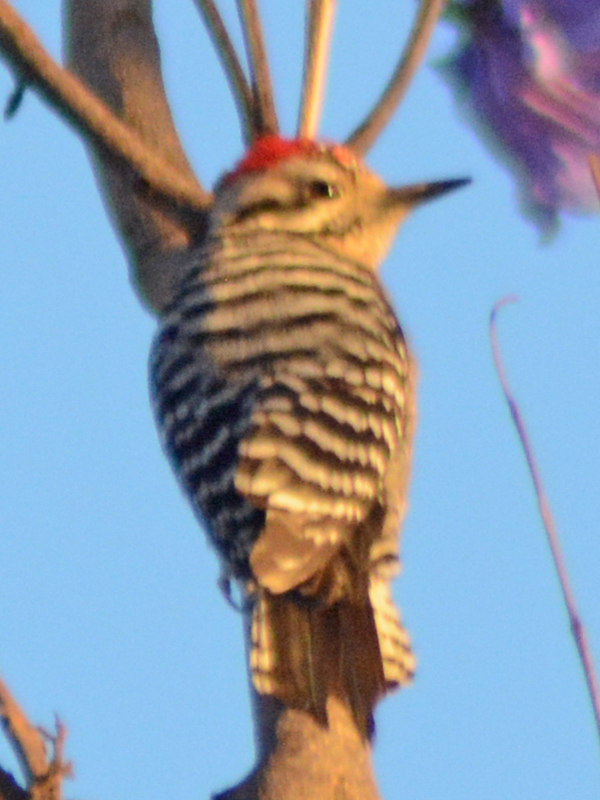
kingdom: Animalia
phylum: Chordata
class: Aves
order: Piciformes
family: Picidae
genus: Dryobates
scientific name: Dryobates scalaris
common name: Ladder-backed woodpecker
